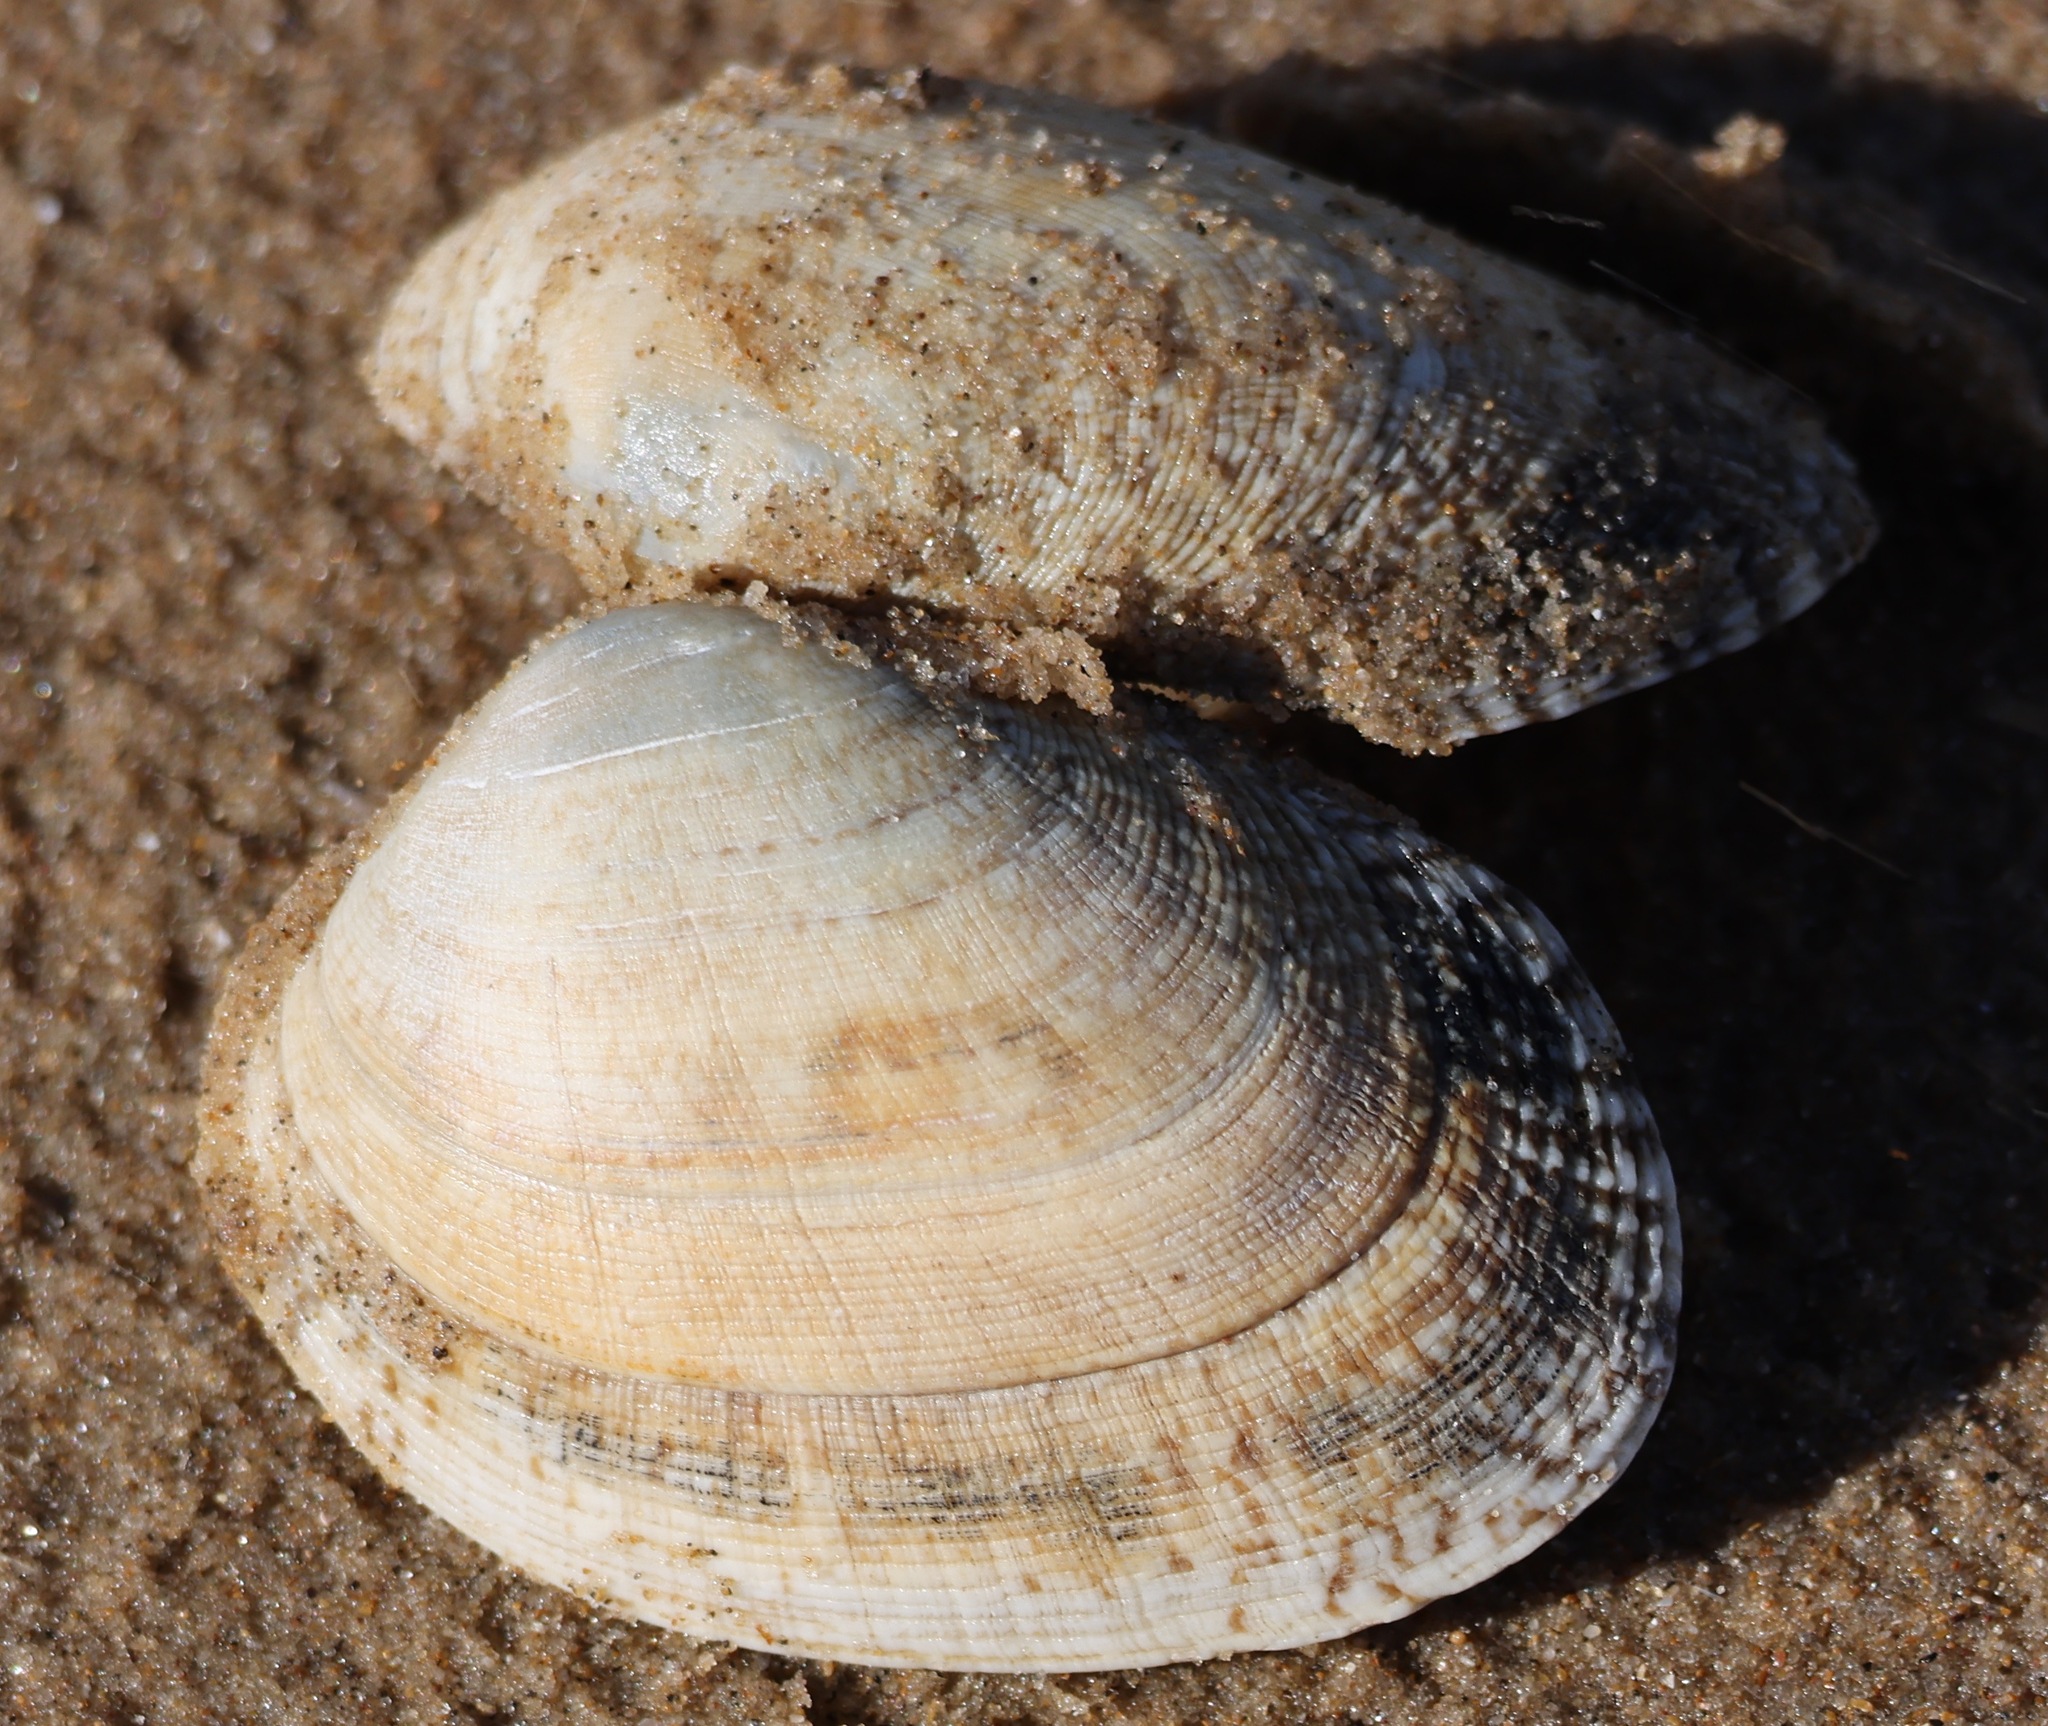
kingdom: Animalia
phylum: Mollusca
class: Bivalvia
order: Venerida
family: Veneridae
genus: Venerupis
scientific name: Venerupis corrugata
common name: Pullet carpet shell
